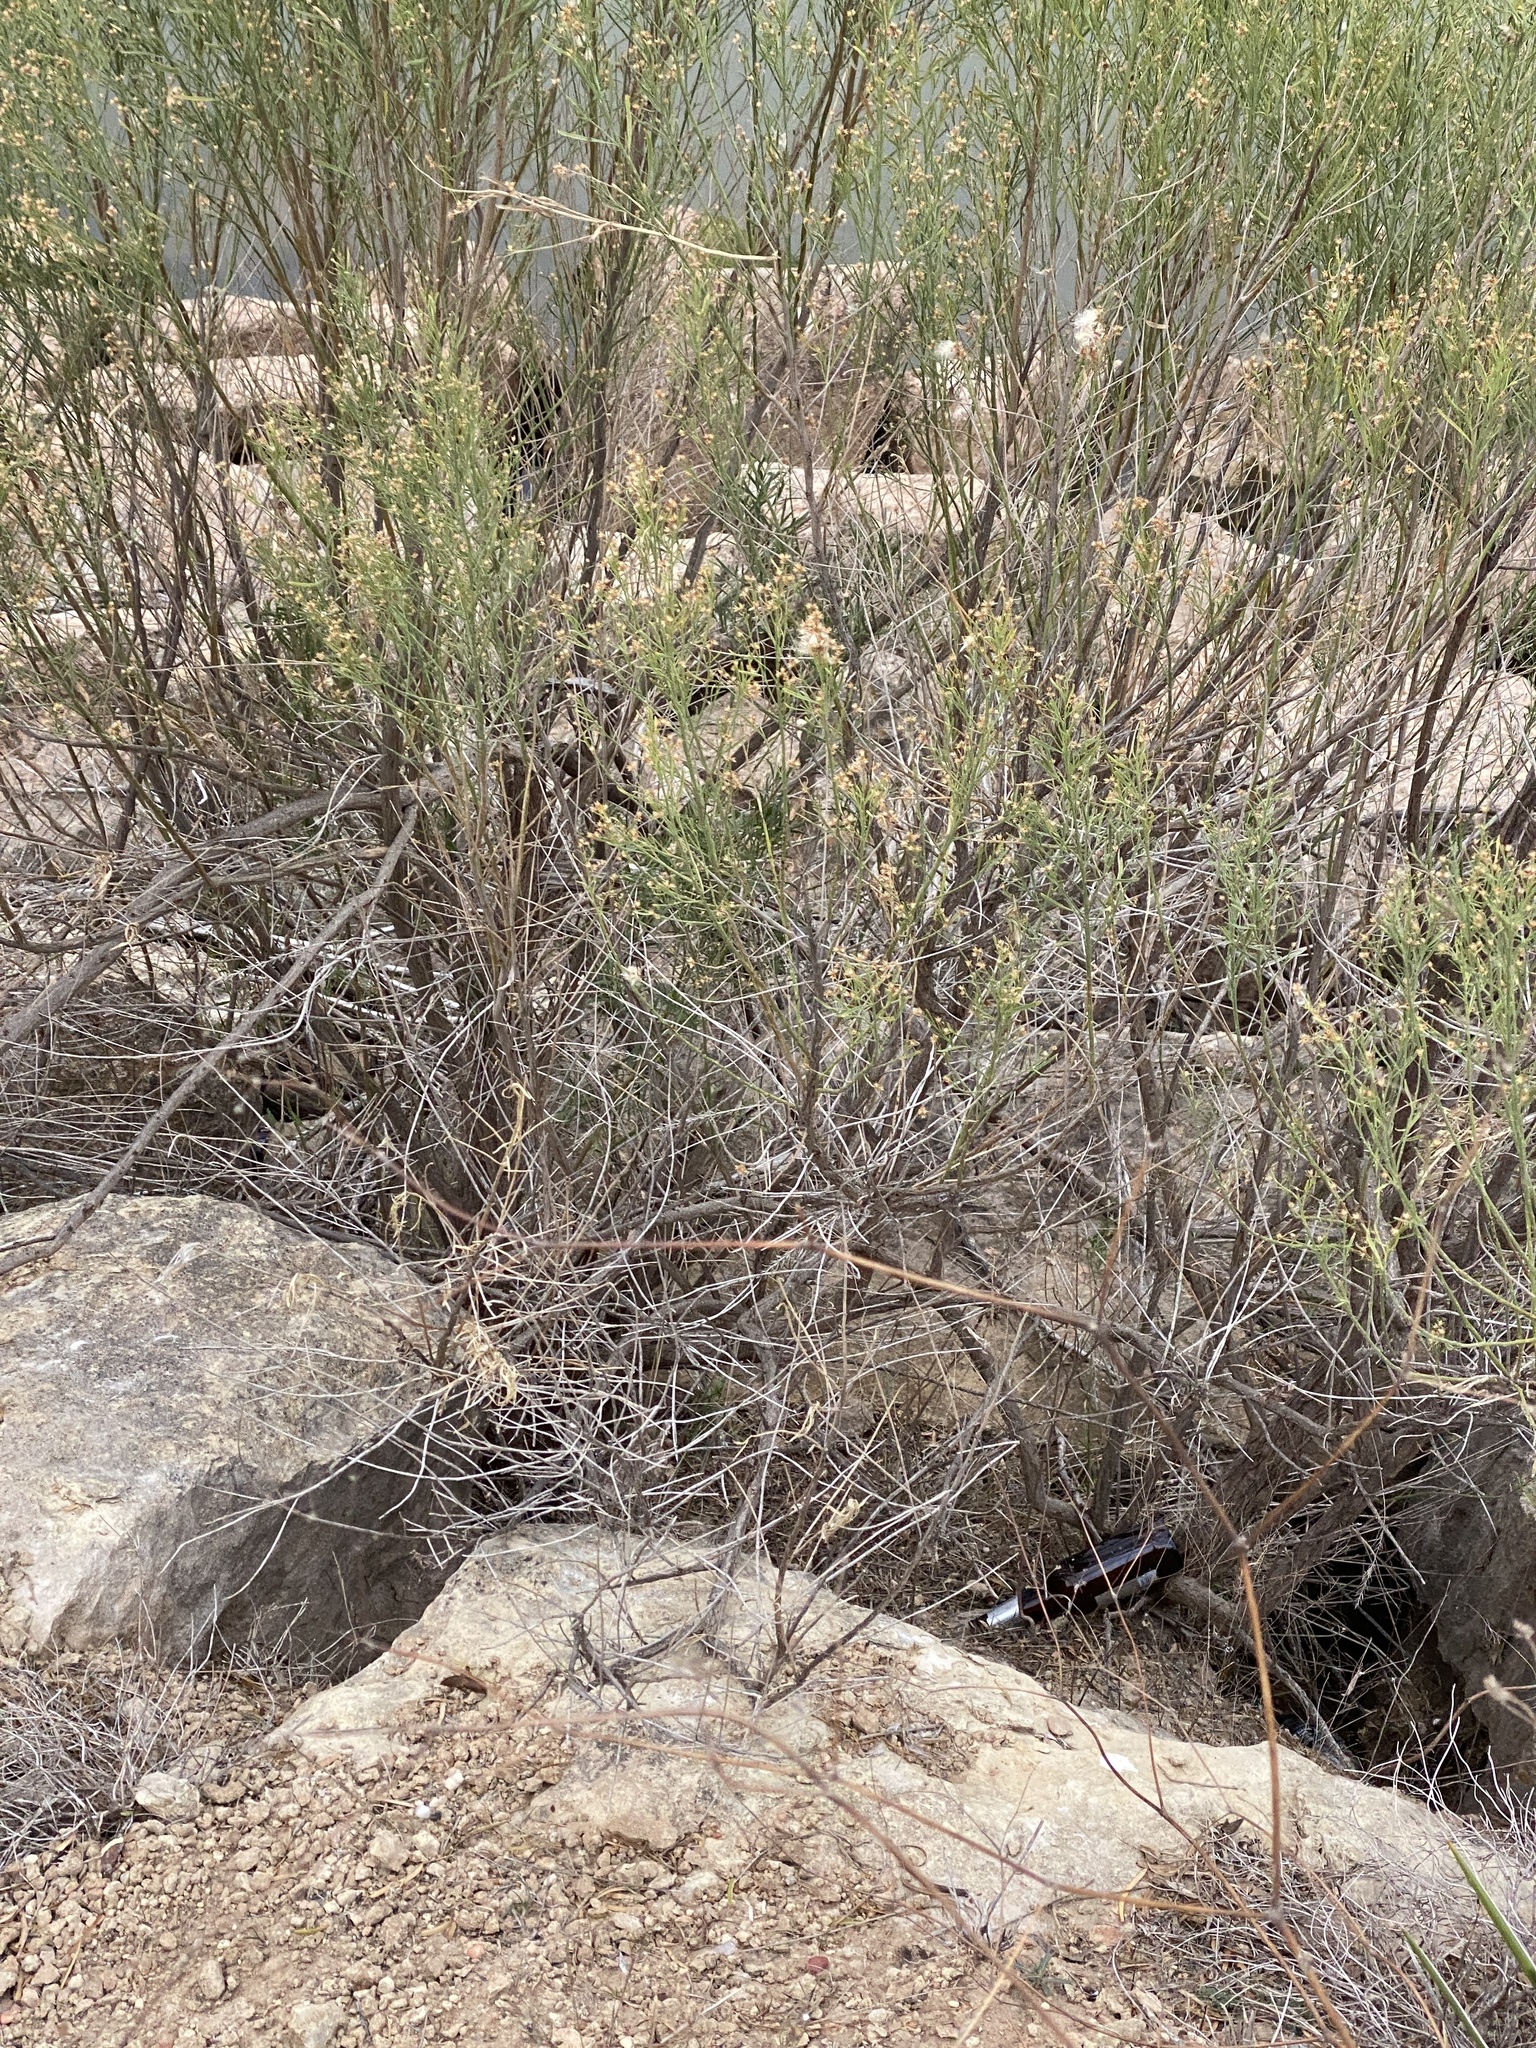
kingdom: Plantae
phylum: Tracheophyta
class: Magnoliopsida
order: Asterales
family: Asteraceae
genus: Baccharis
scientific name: Baccharis neglecta
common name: Roosevelt-weed
